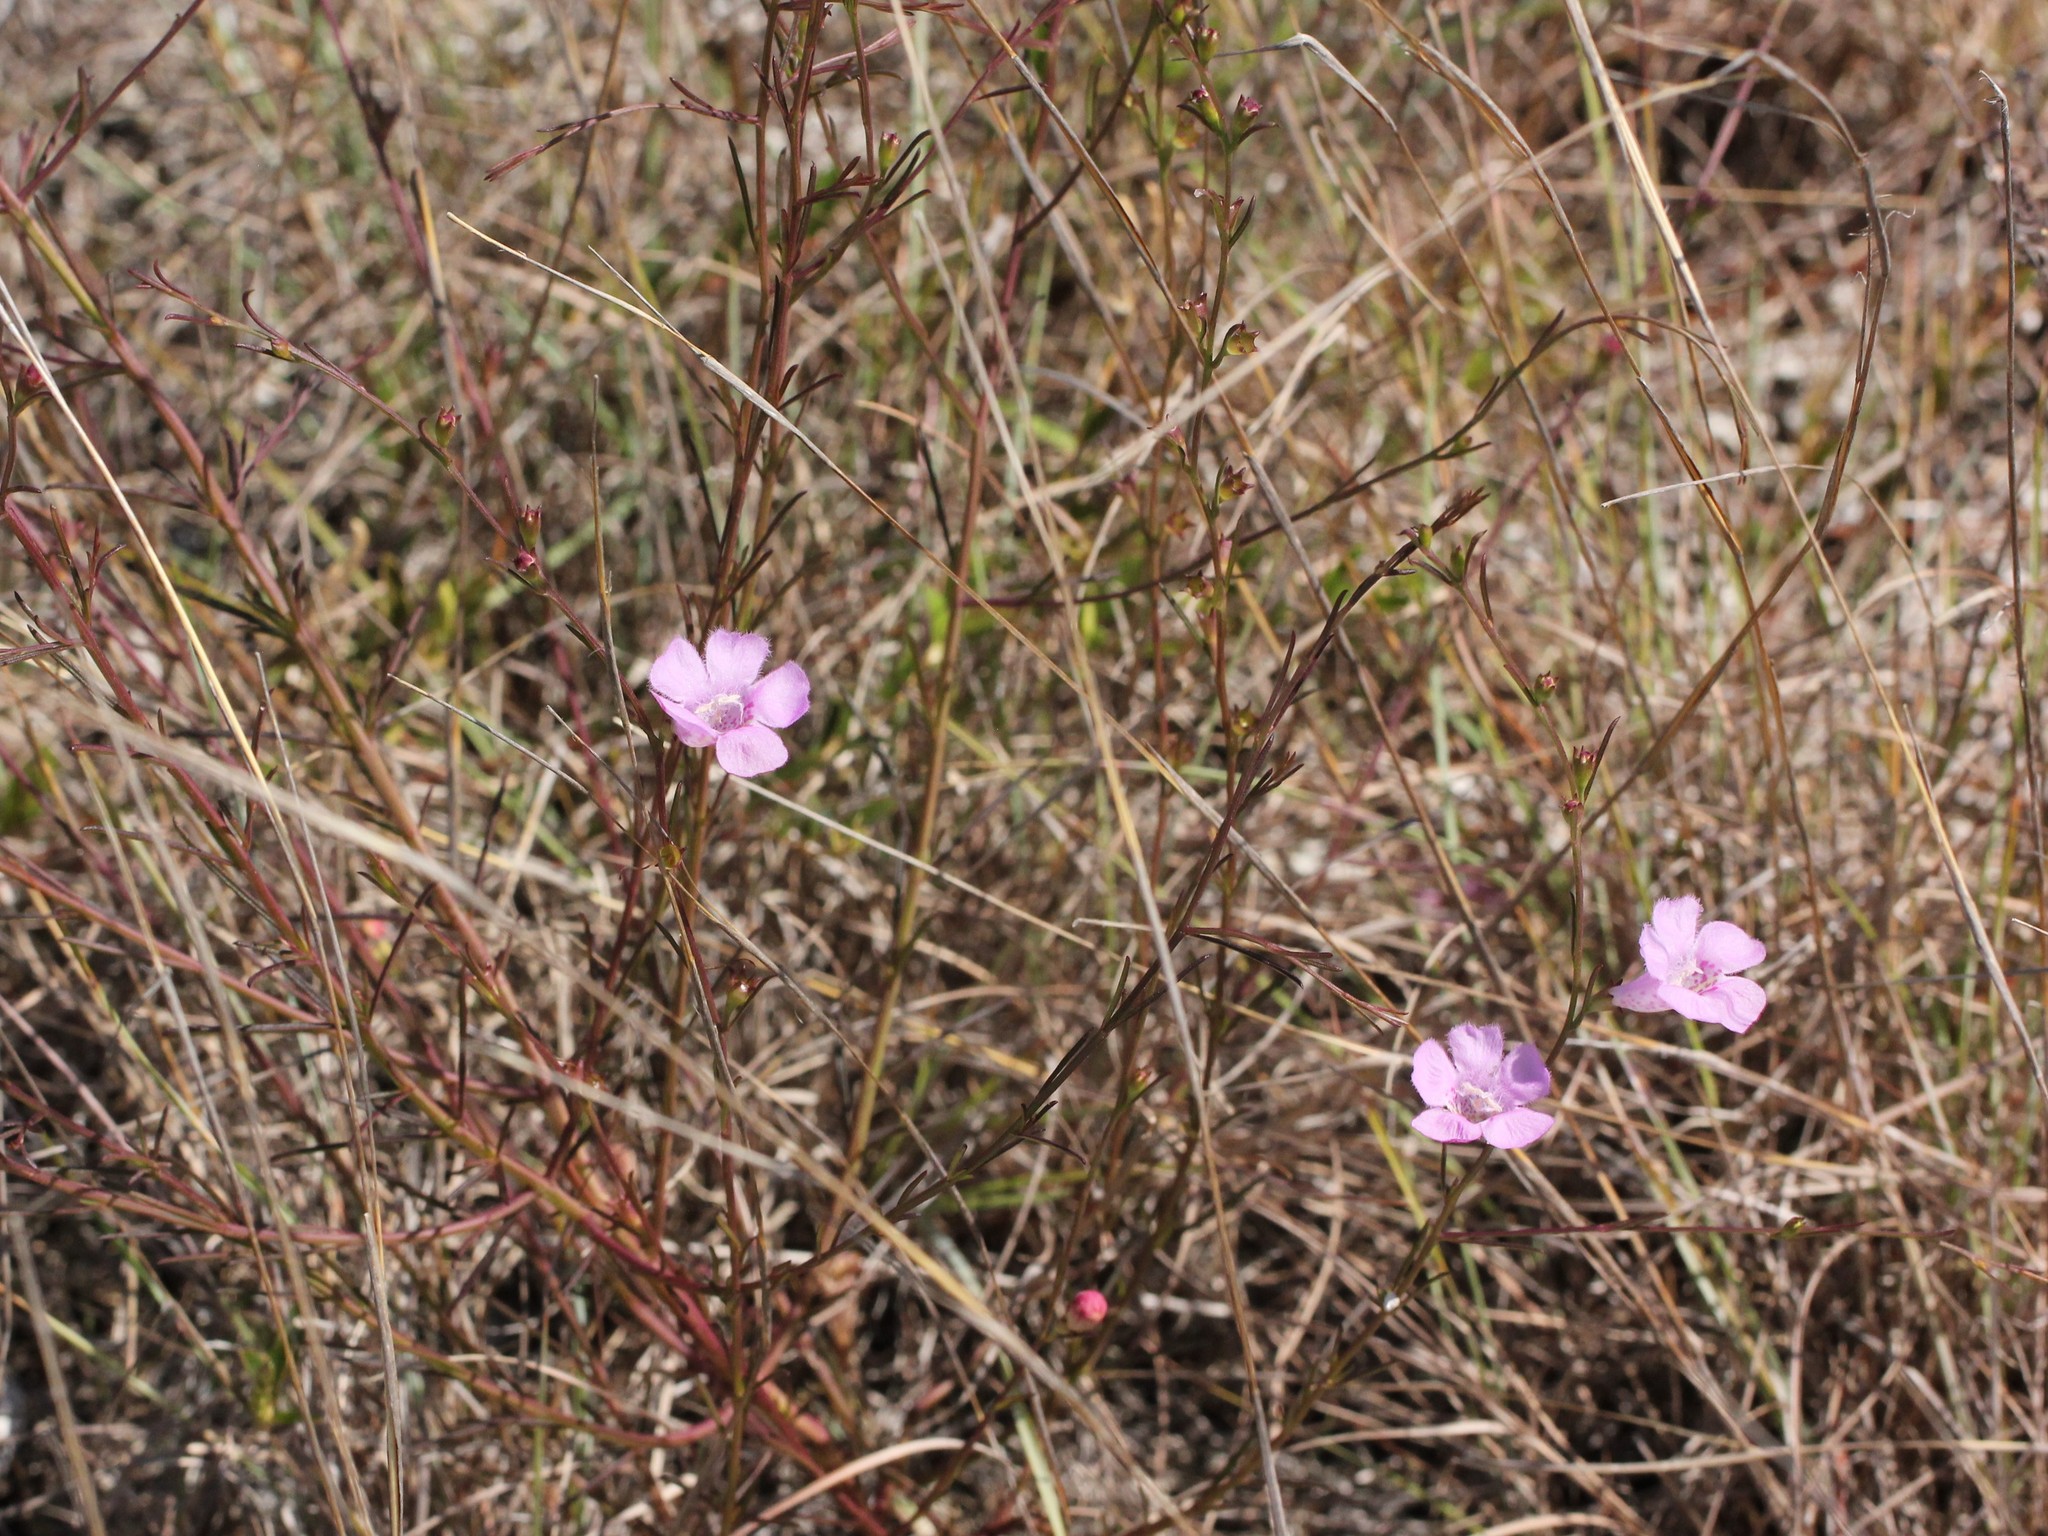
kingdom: Plantae
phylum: Tracheophyta
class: Magnoliopsida
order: Lamiales
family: Orobanchaceae
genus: Agalinis
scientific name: Agalinis fasciculata
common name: Beach false foxglove
